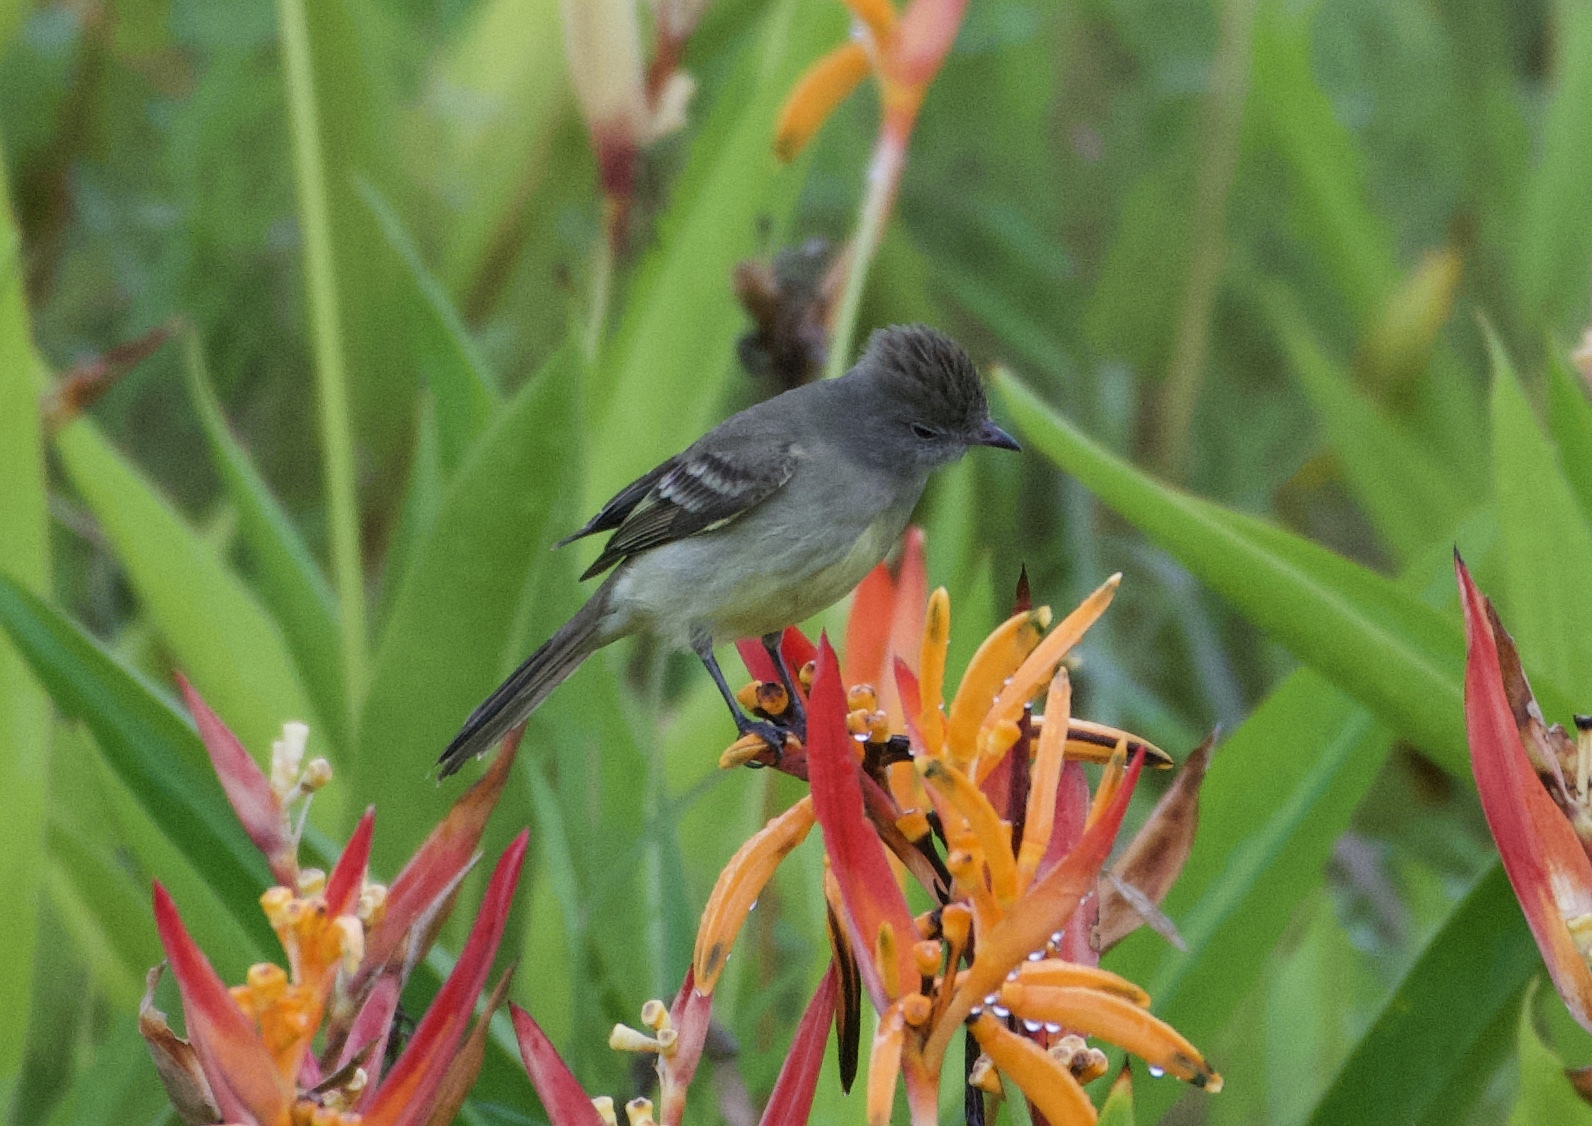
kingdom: Animalia
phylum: Chordata
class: Aves
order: Passeriformes
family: Tyrannidae
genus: Elaenia
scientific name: Elaenia flavogaster
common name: Yellow-bellied elaenia
